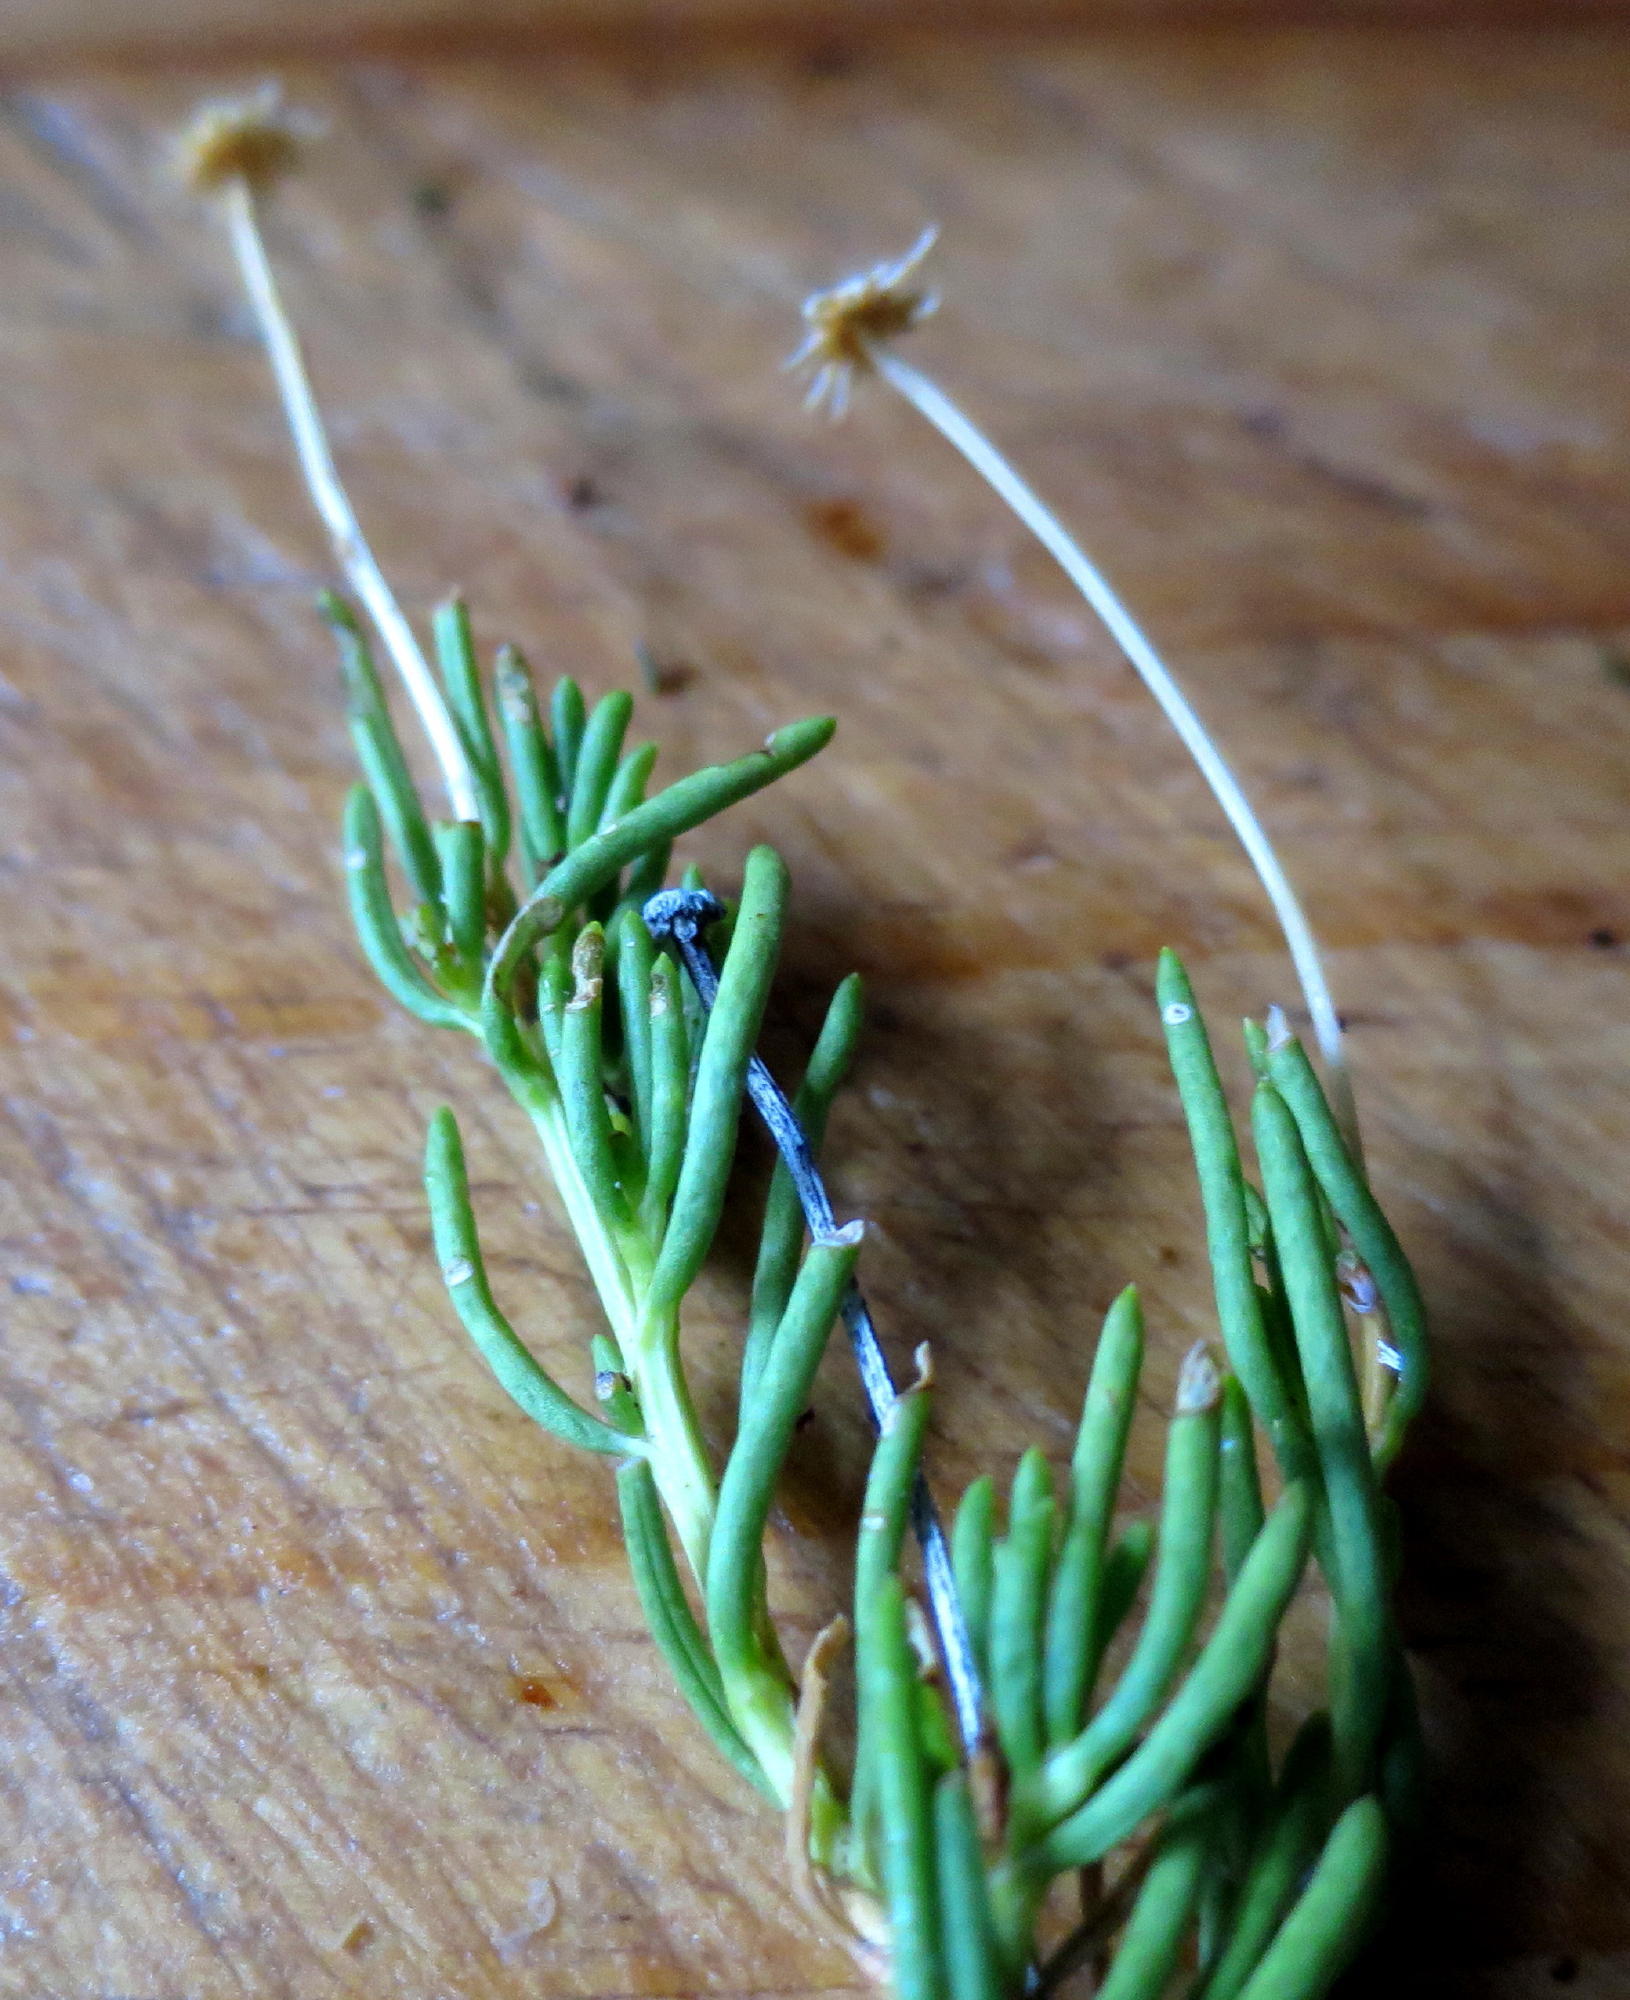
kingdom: Plantae
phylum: Tracheophyta
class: Magnoliopsida
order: Asterales
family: Asteraceae
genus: Felicia
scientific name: Felicia filifolia
